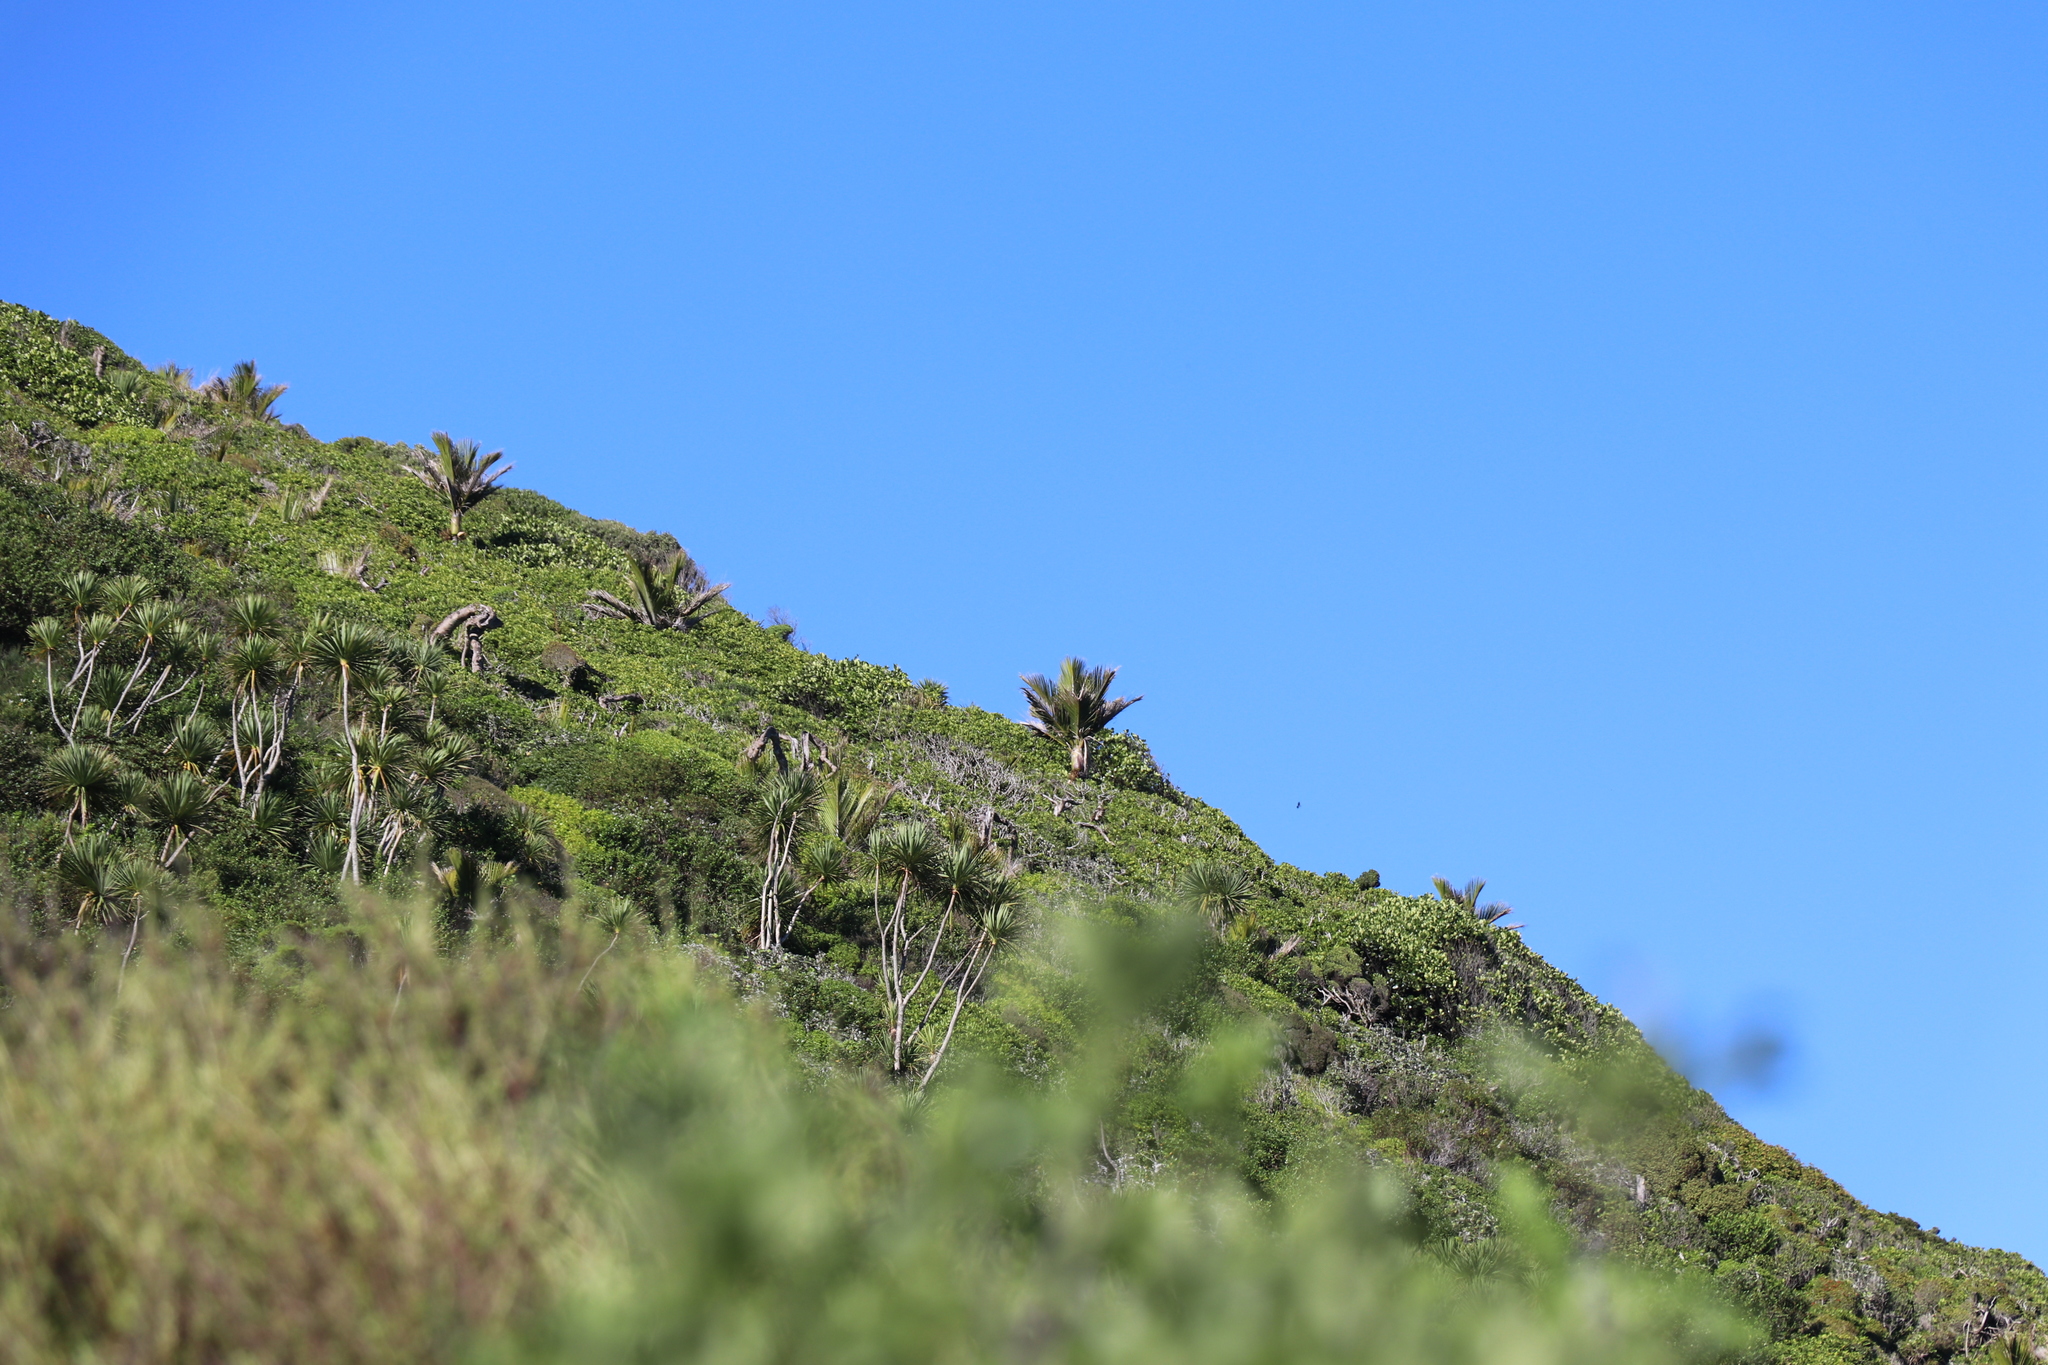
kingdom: Plantae
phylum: Tracheophyta
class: Liliopsida
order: Arecales
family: Arecaceae
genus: Rhopalostylis
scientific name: Rhopalostylis sapida
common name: Feather-duster palm
